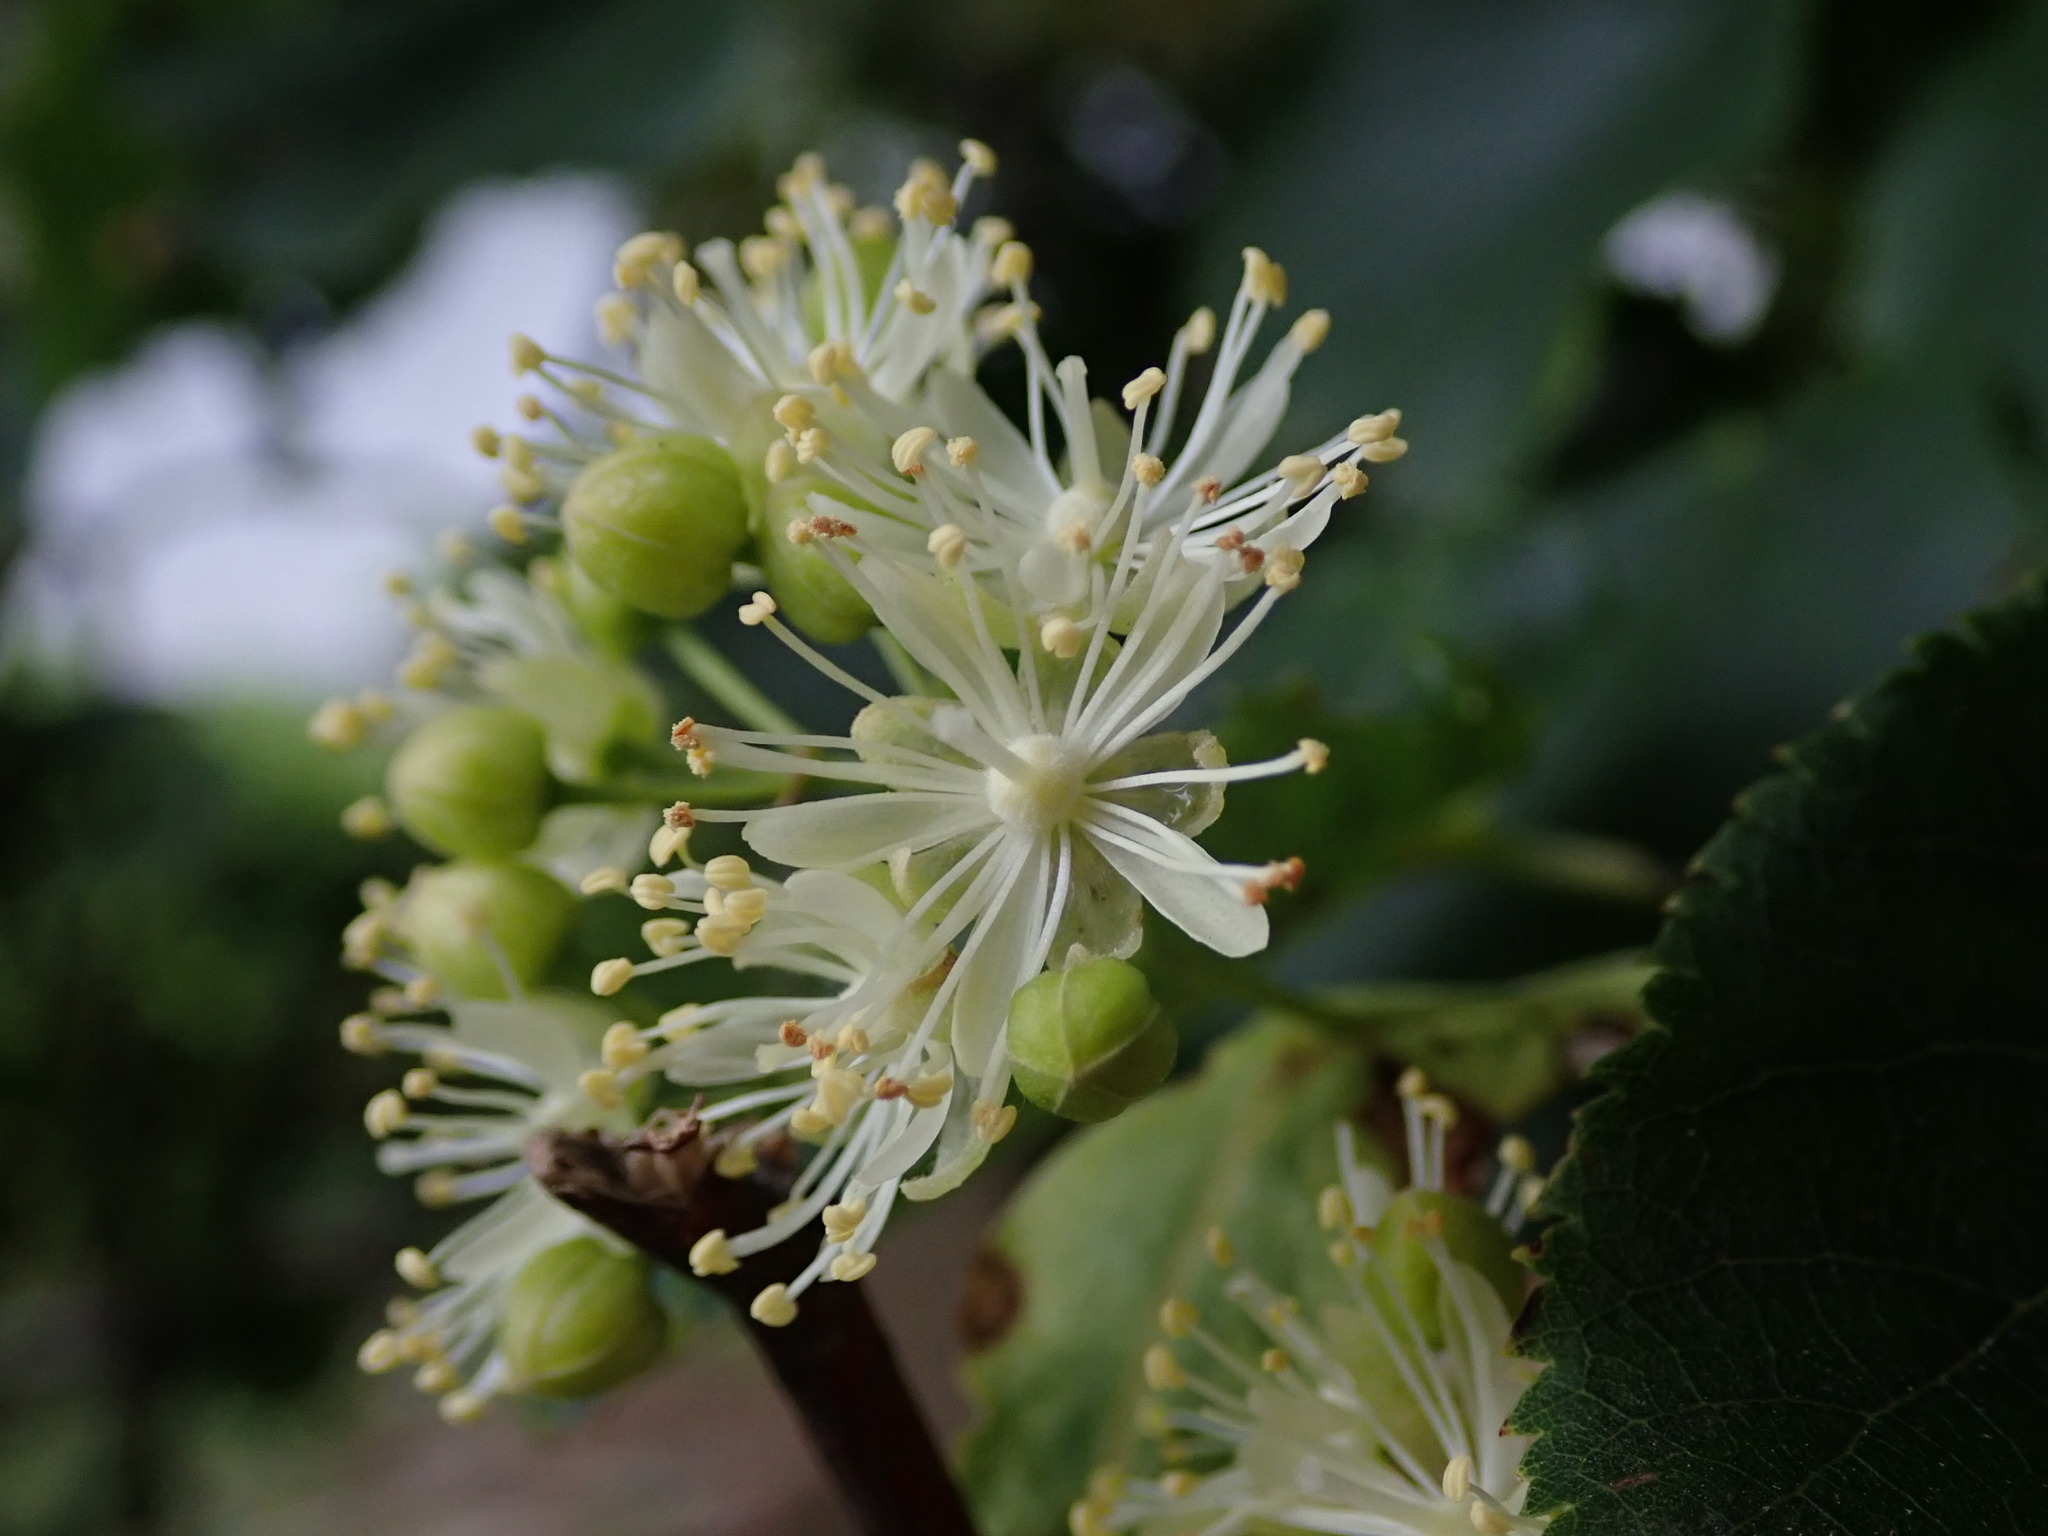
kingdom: Plantae
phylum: Tracheophyta
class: Magnoliopsida
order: Malvales
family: Malvaceae
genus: Tilia
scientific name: Tilia cordata
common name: Small-leaved lime
